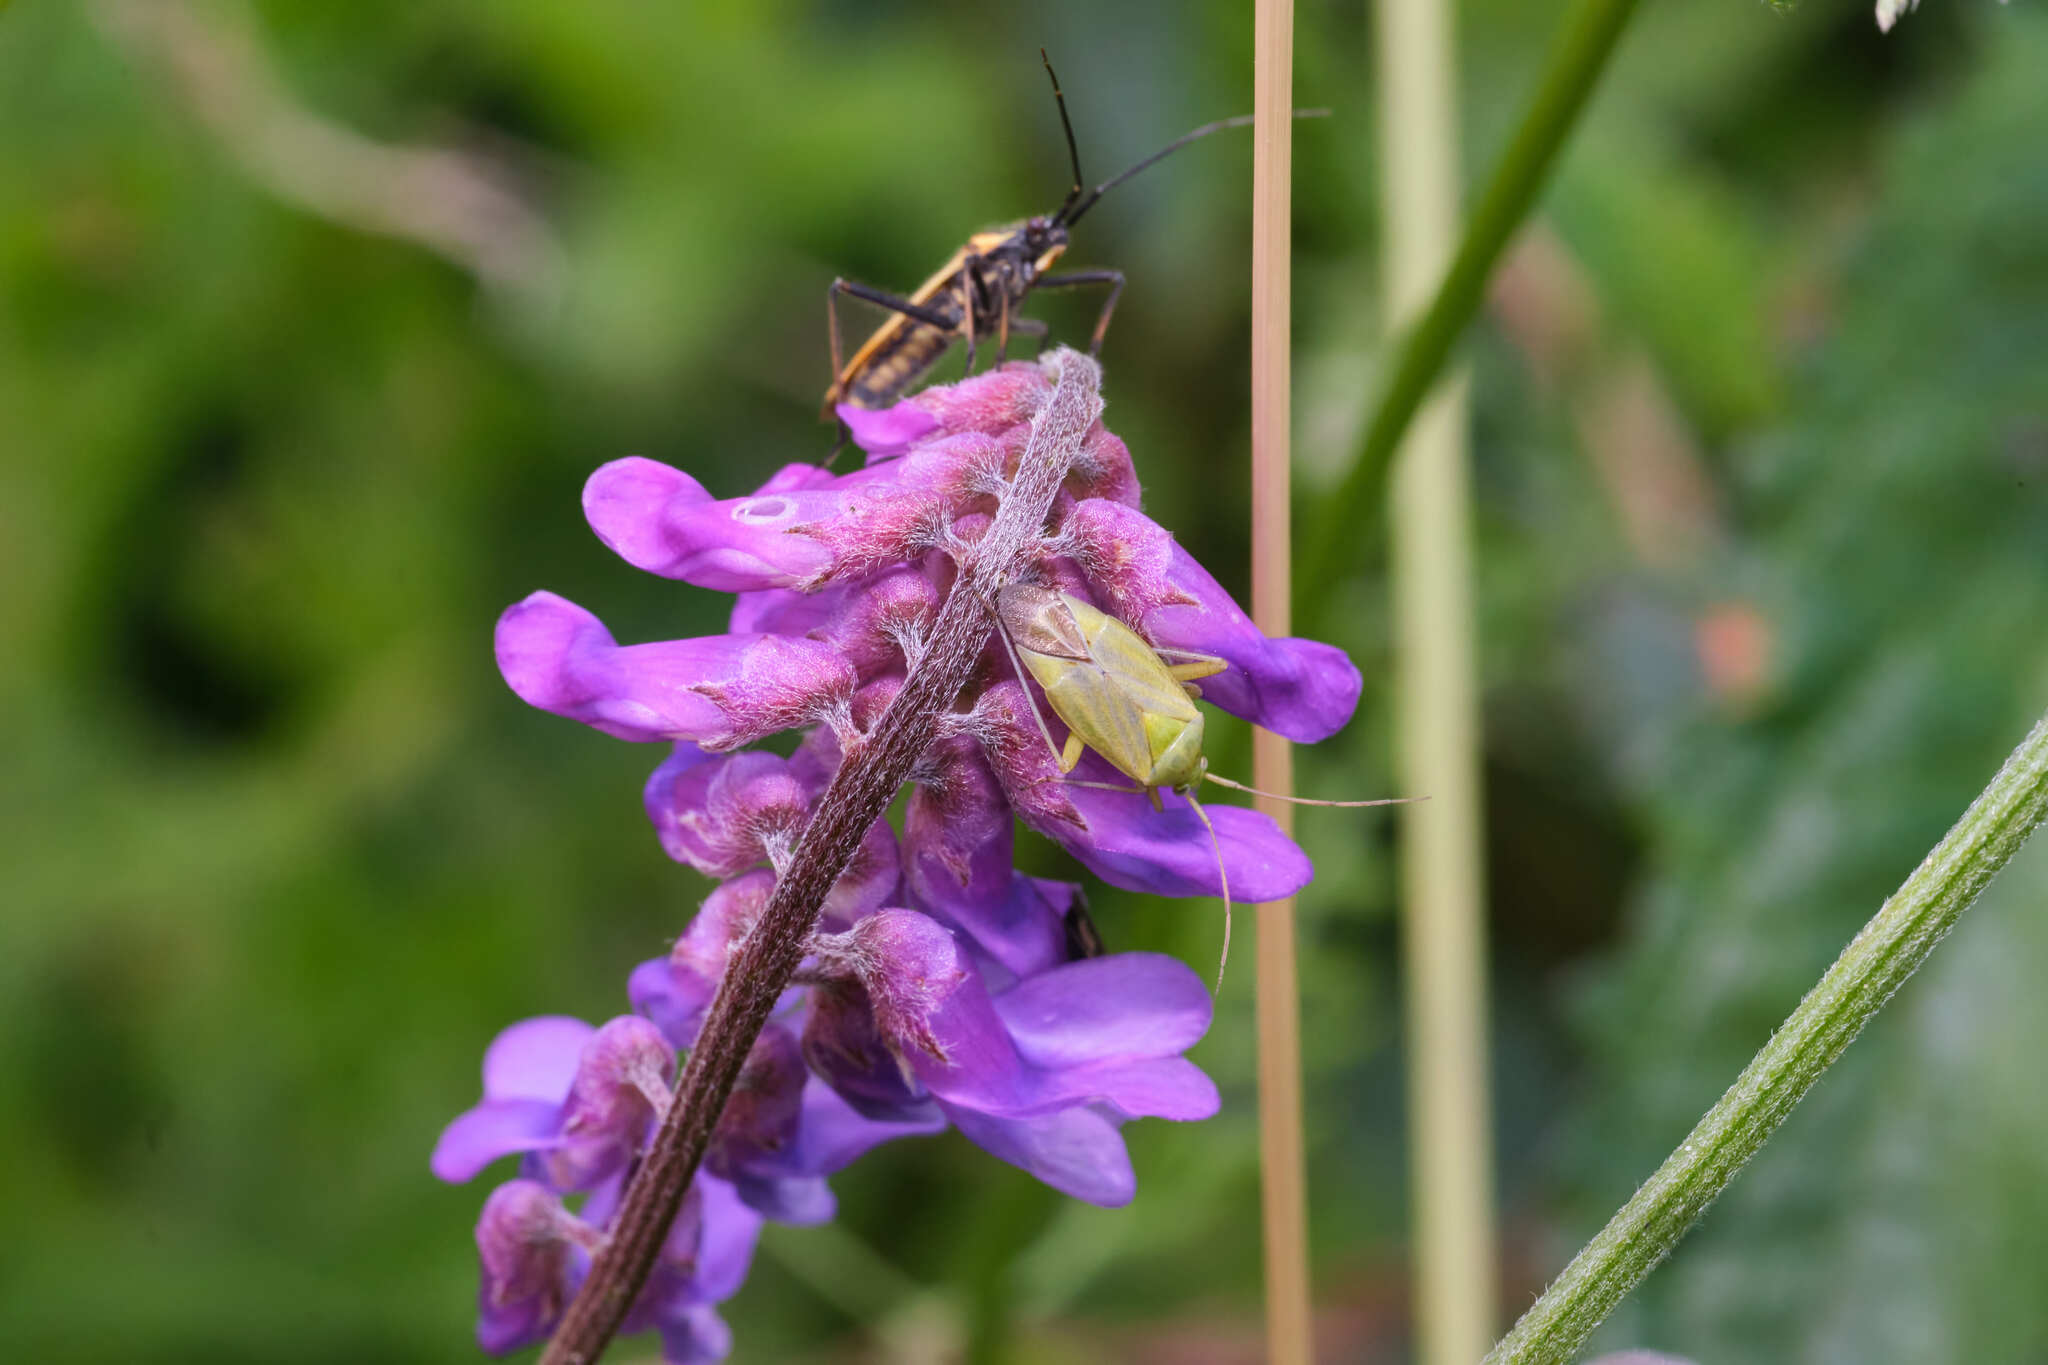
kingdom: Animalia
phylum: Arthropoda
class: Insecta
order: Hemiptera
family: Miridae
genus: Closterotomus
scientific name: Closterotomus norvegicus
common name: Plant bug
